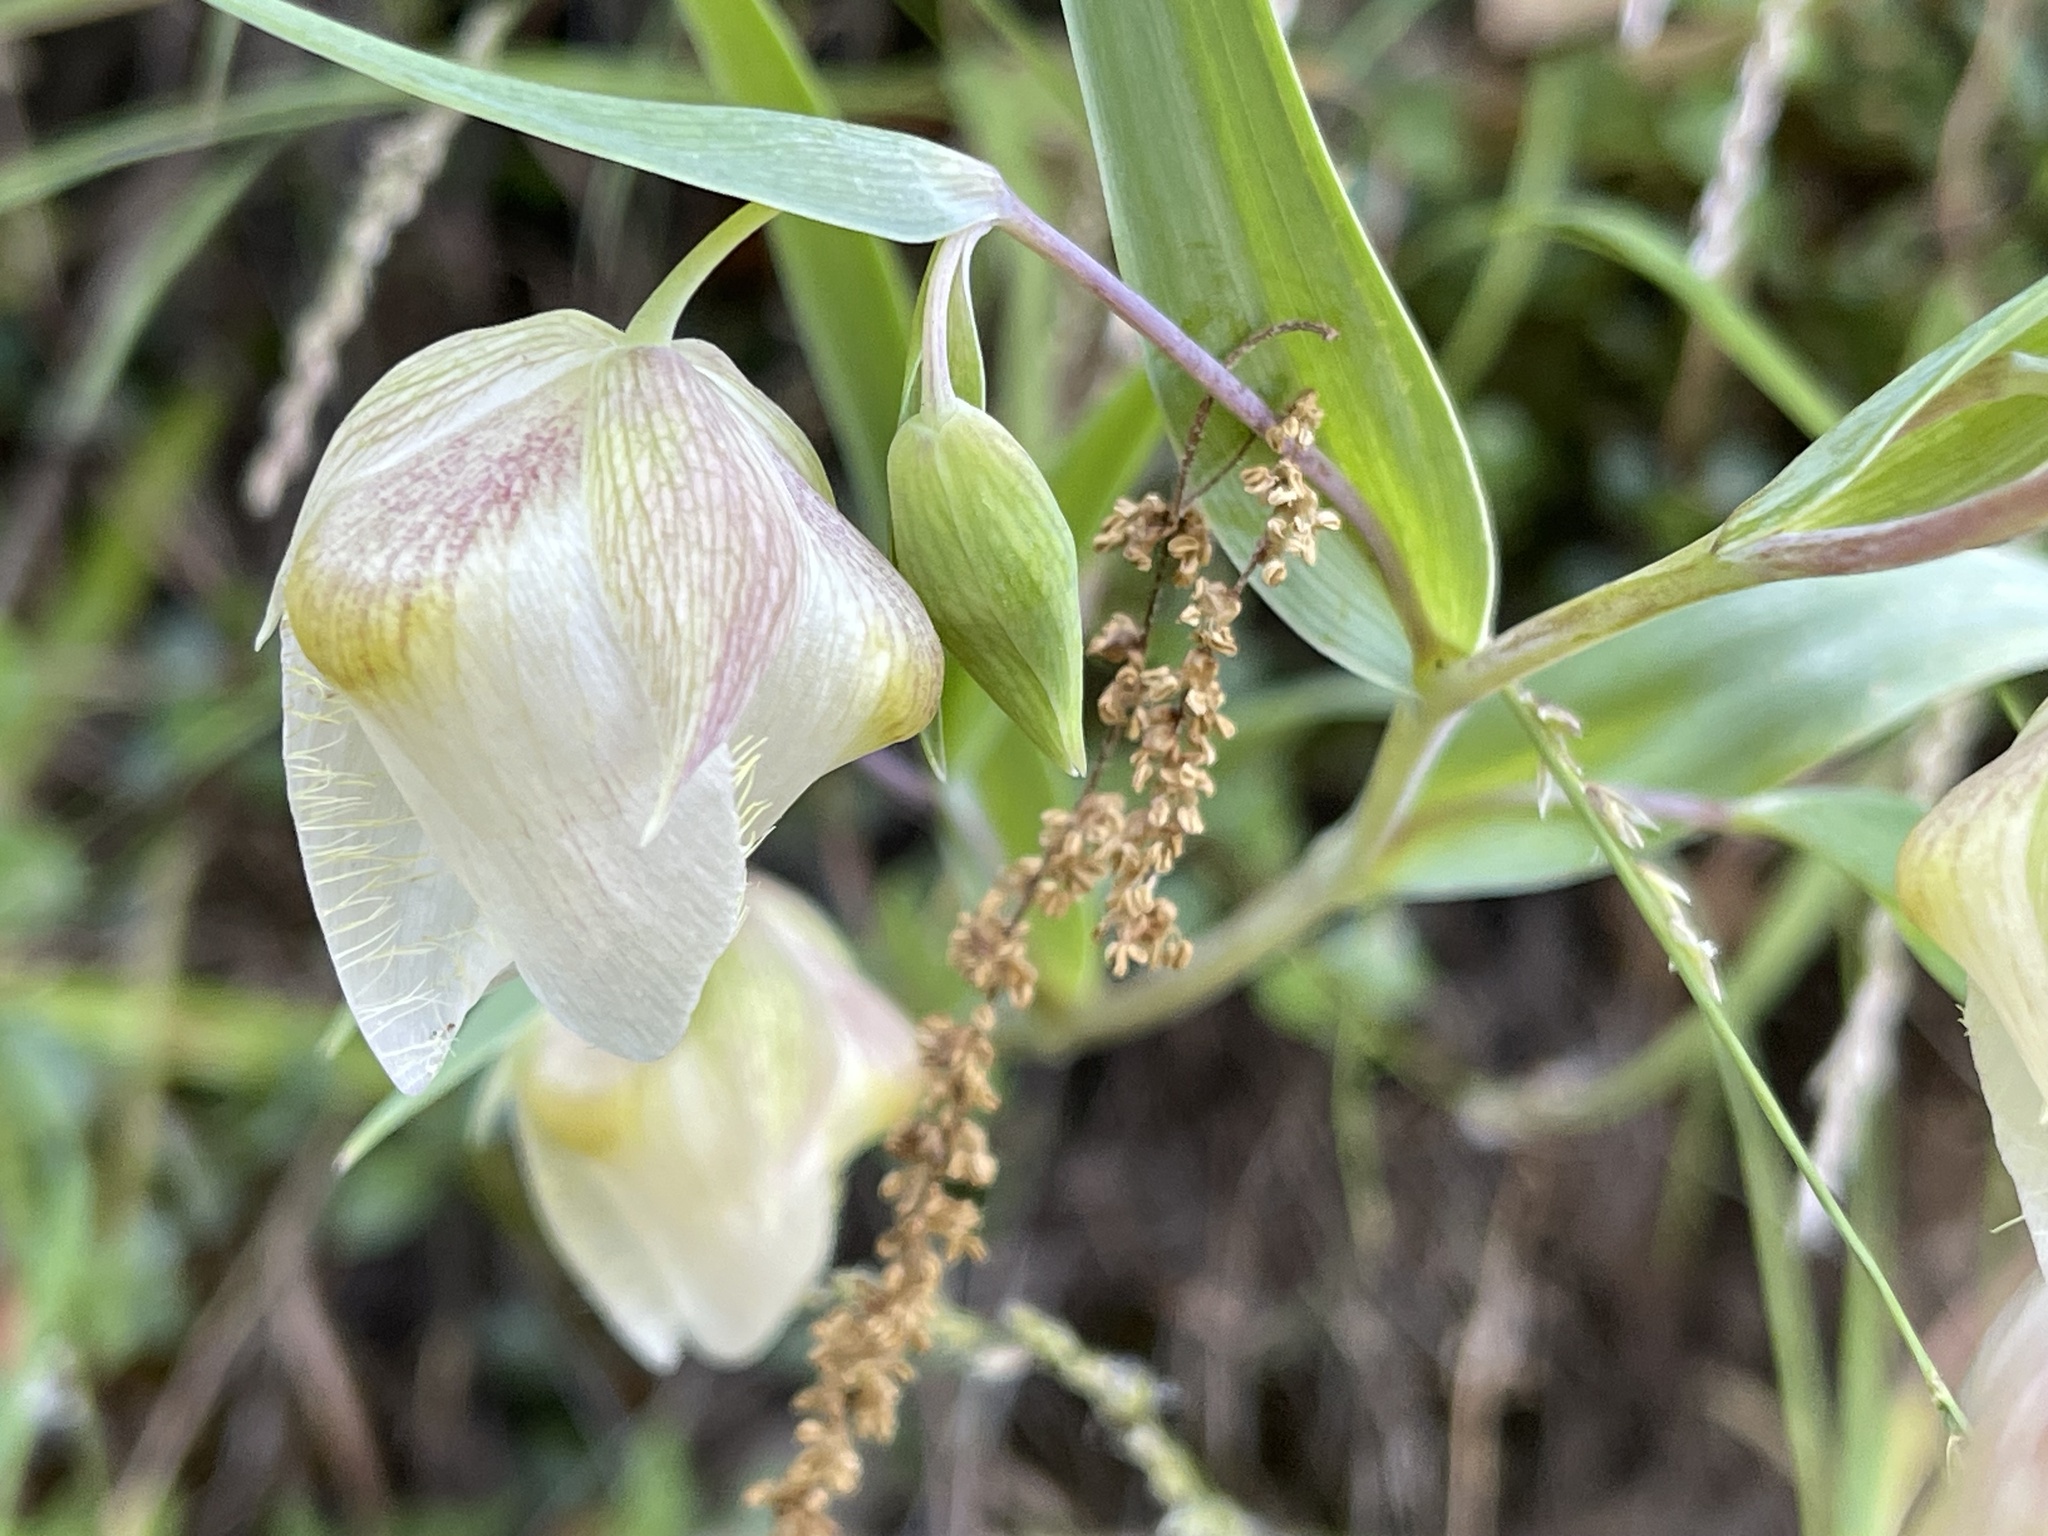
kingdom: Plantae
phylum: Tracheophyta
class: Liliopsida
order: Liliales
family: Liliaceae
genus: Calochortus
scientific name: Calochortus albus
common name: Fairy-lantern
